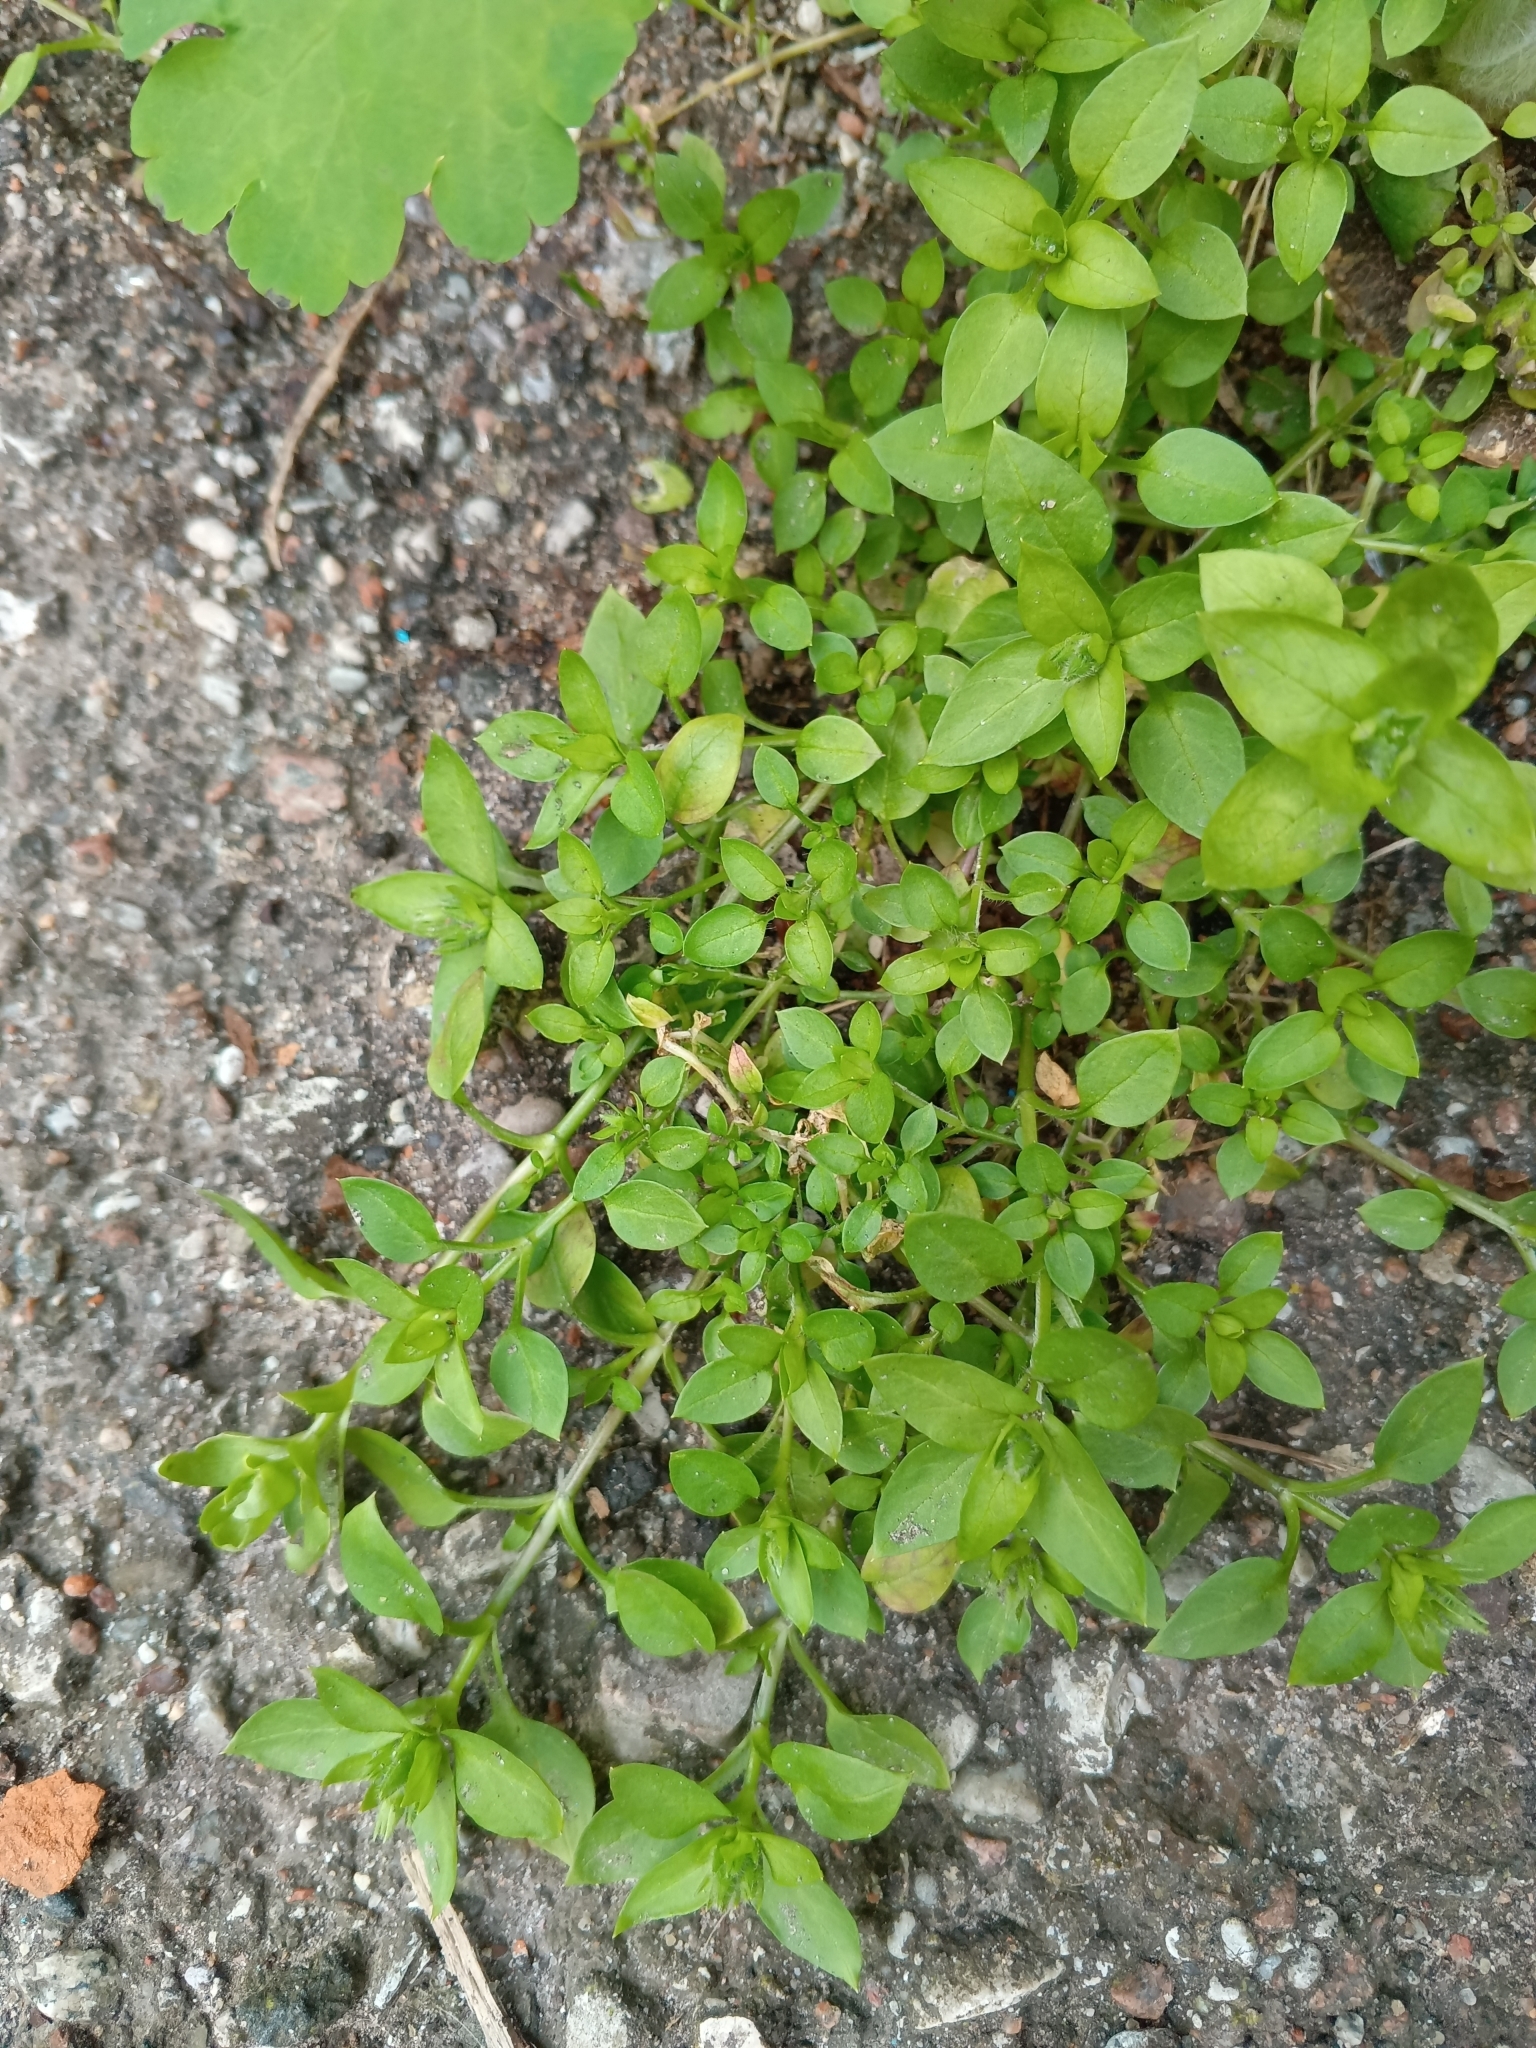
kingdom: Plantae
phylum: Tracheophyta
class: Magnoliopsida
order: Caryophyllales
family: Caryophyllaceae
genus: Stellaria
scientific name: Stellaria media
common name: Common chickweed
